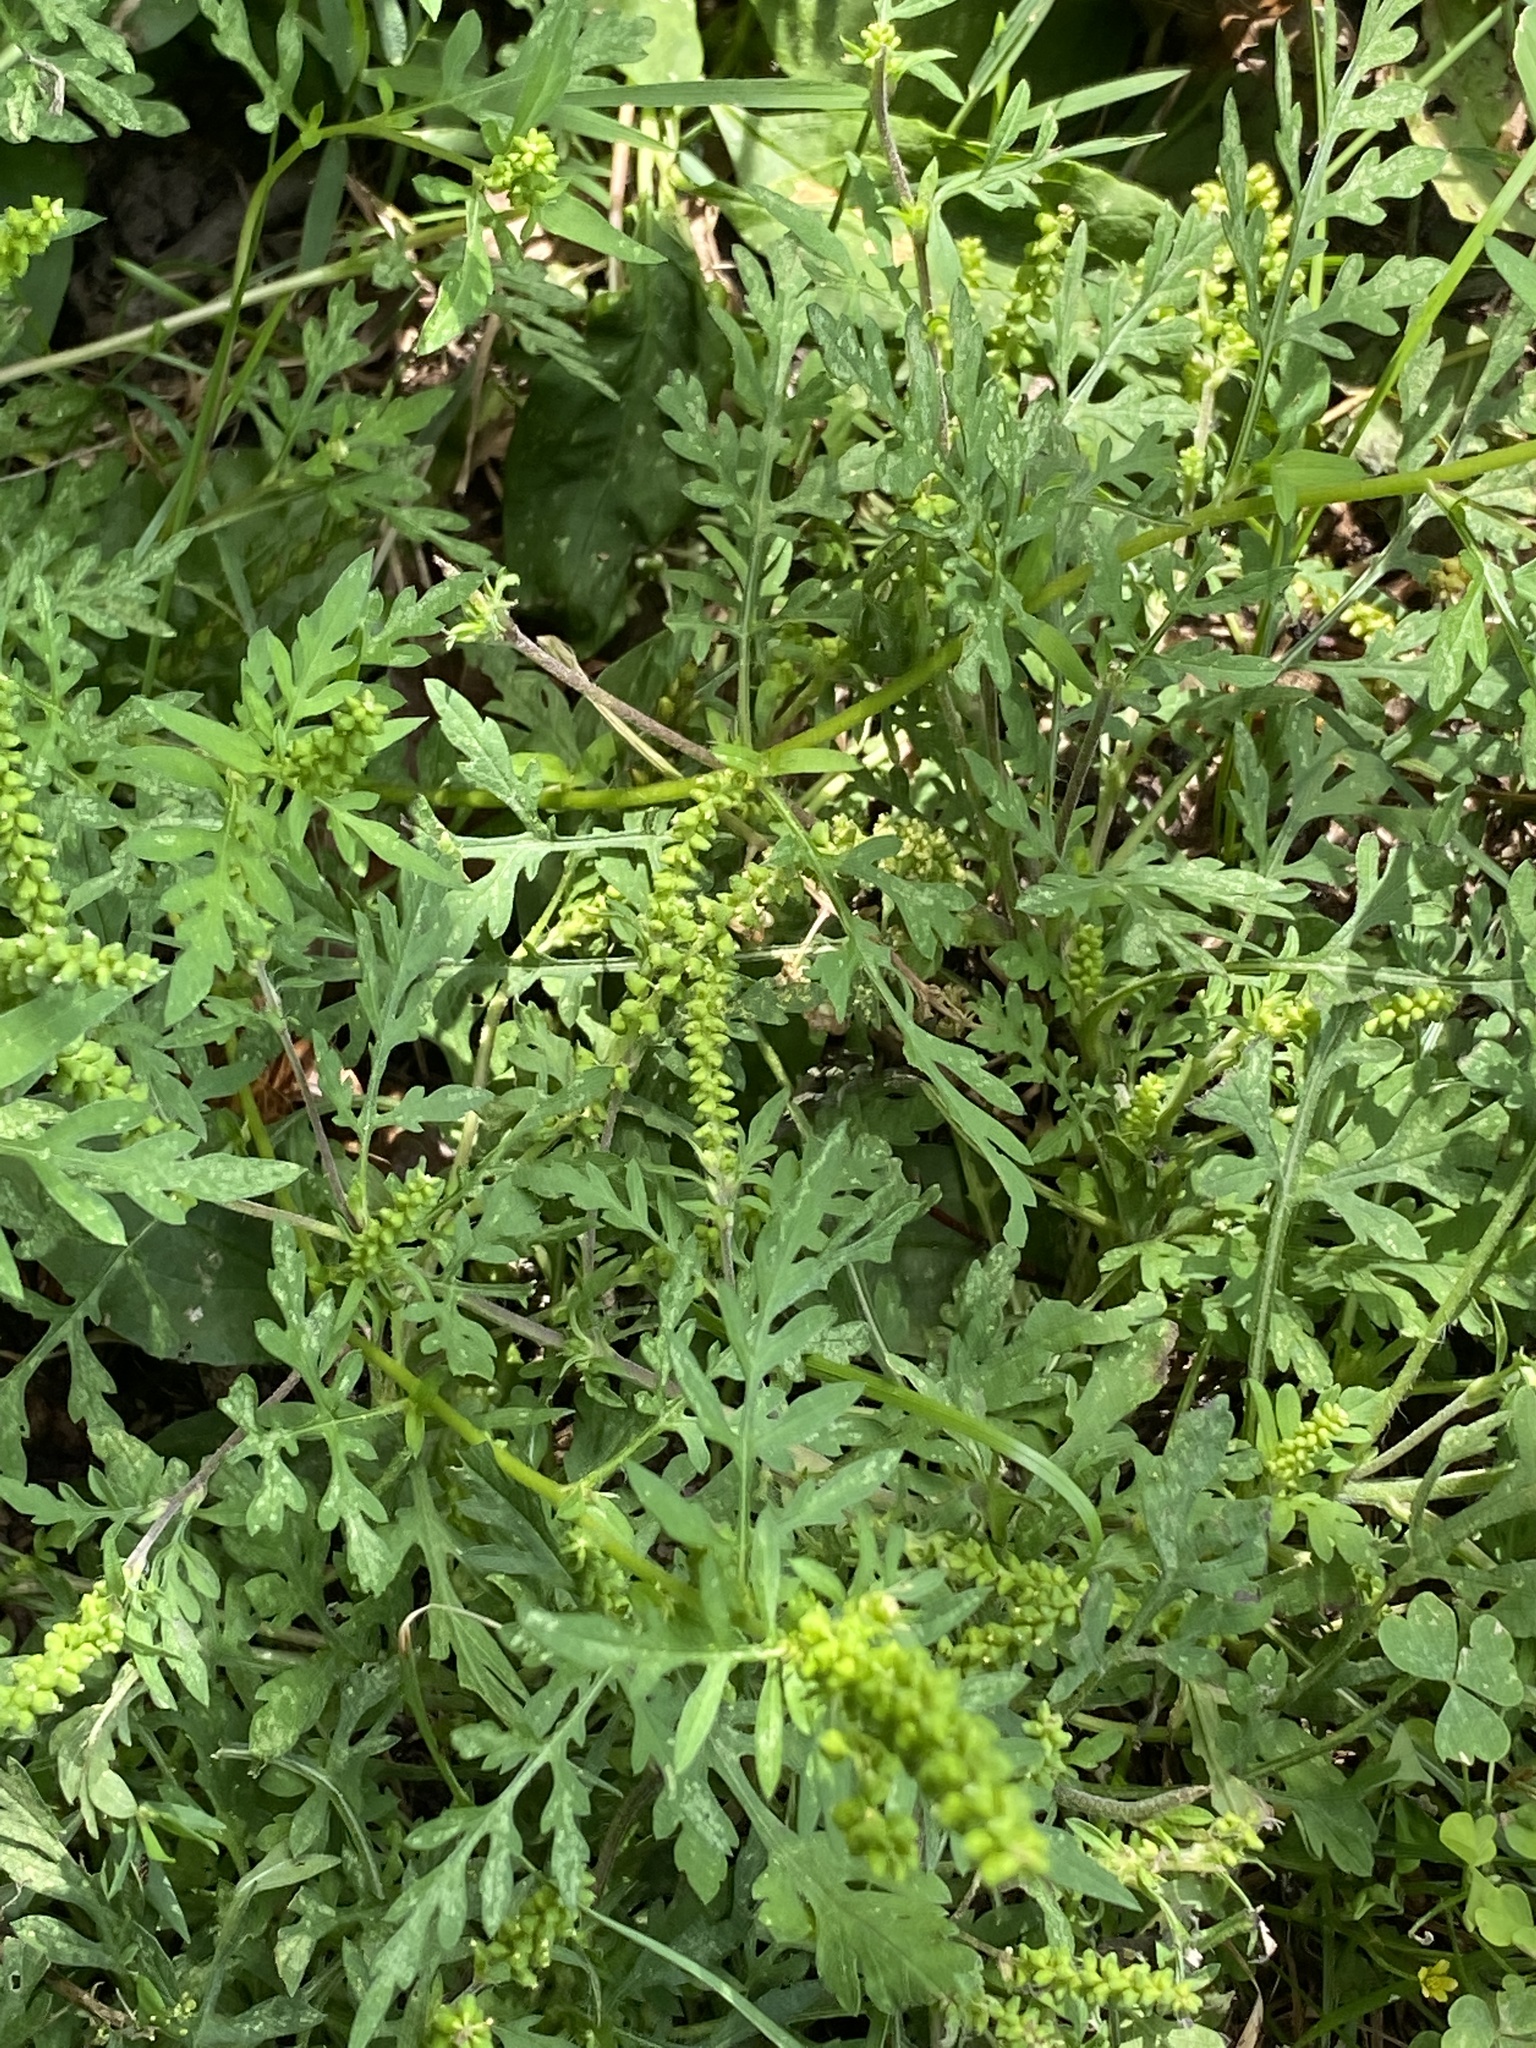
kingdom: Plantae
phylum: Tracheophyta
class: Magnoliopsida
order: Asterales
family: Asteraceae
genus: Ambrosia
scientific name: Ambrosia artemisiifolia
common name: Annual ragweed
